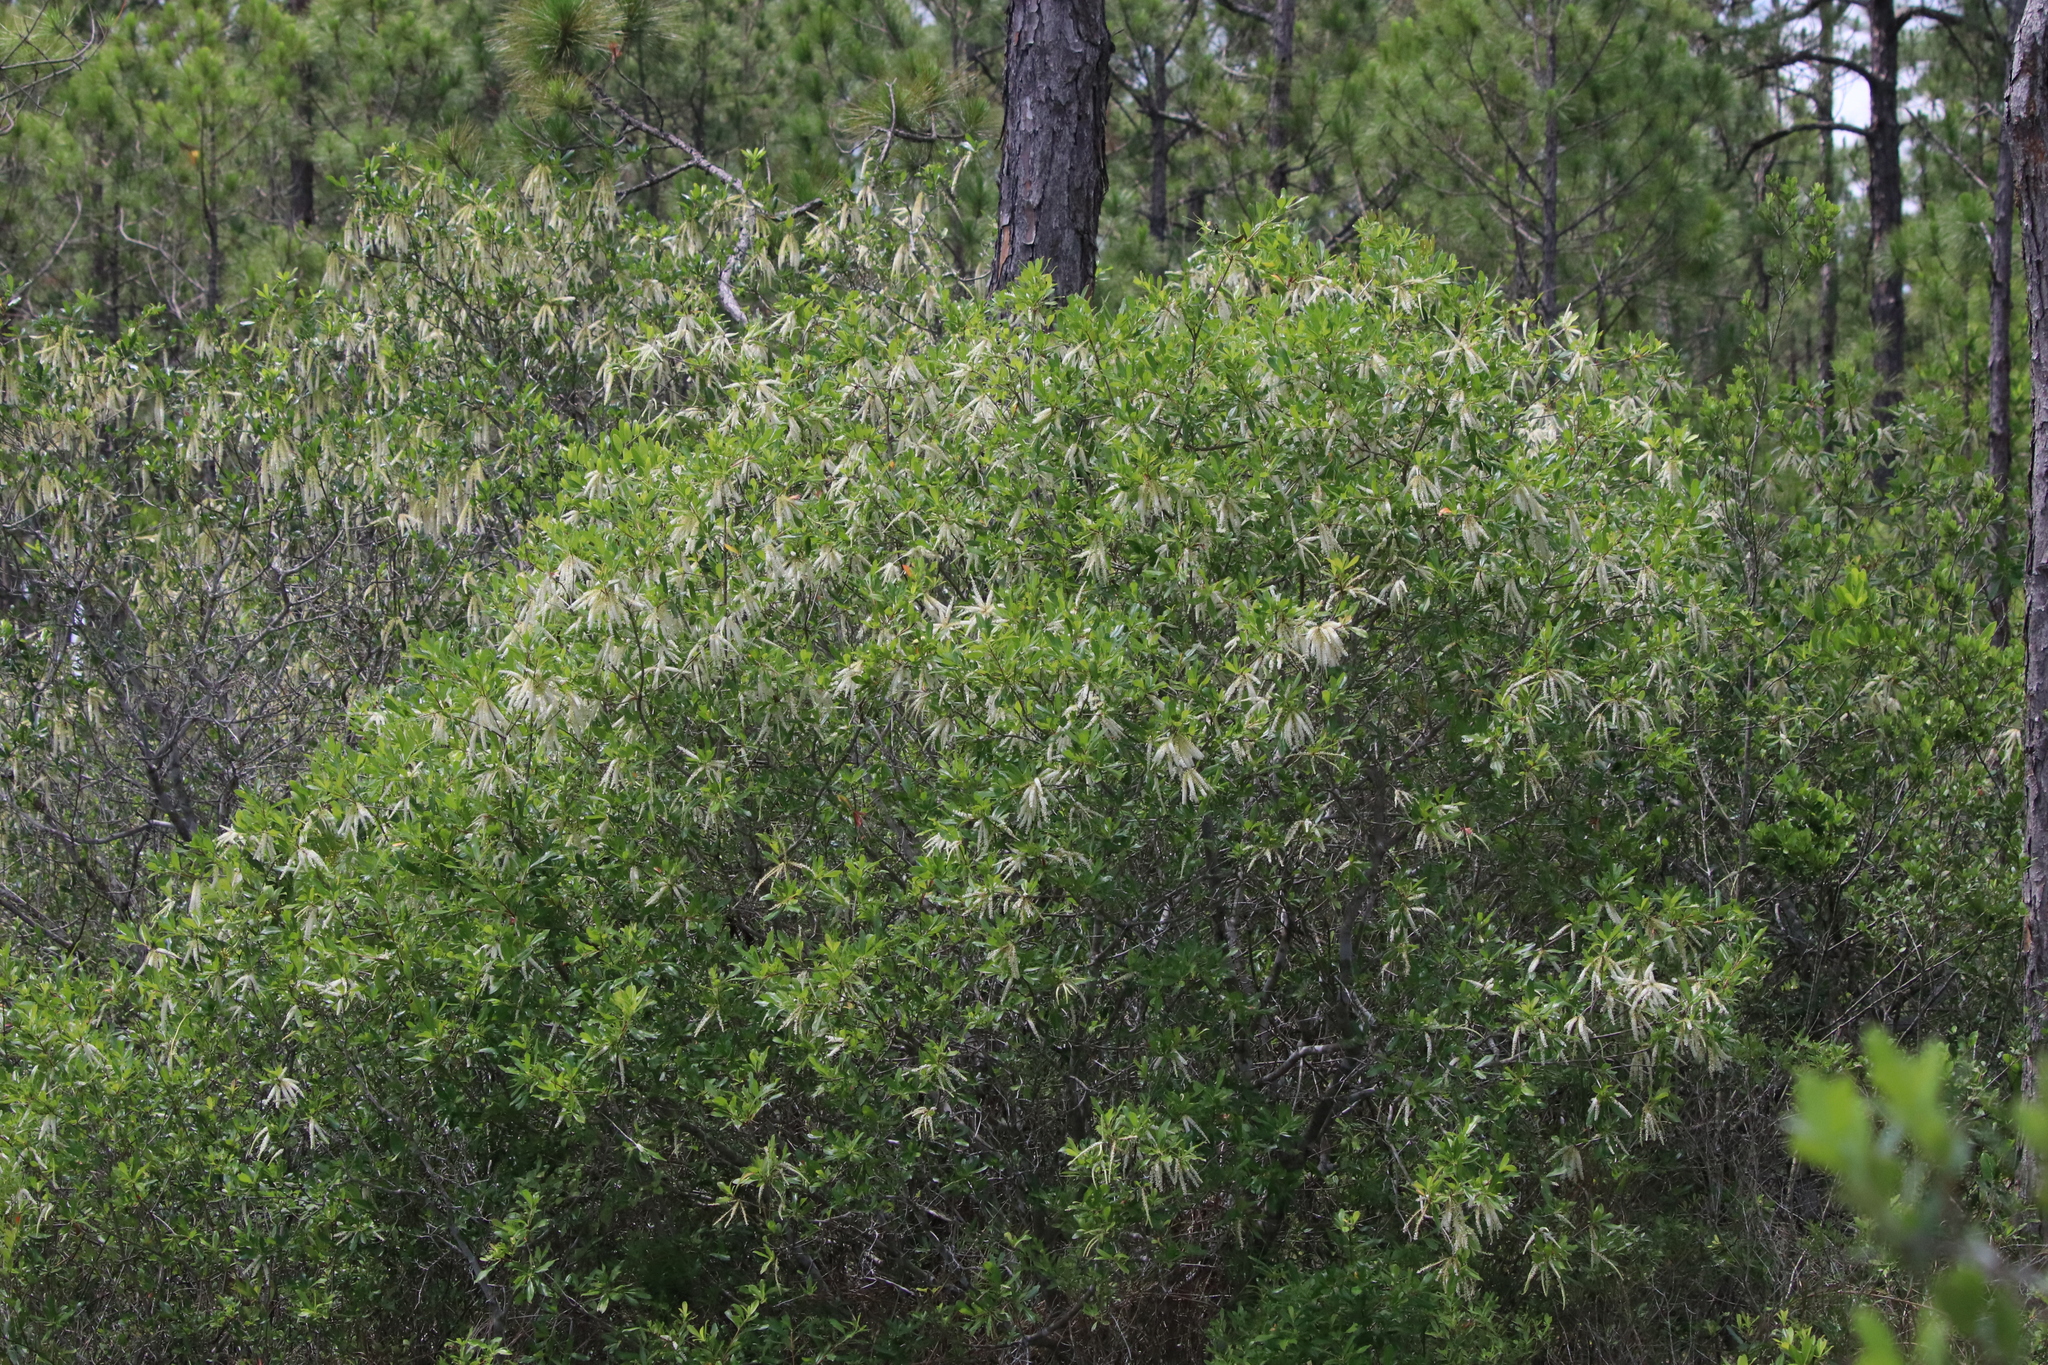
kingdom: Plantae
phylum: Tracheophyta
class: Magnoliopsida
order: Ericales
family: Cyrillaceae
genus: Cyrilla
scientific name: Cyrilla racemiflora
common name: Black titi
